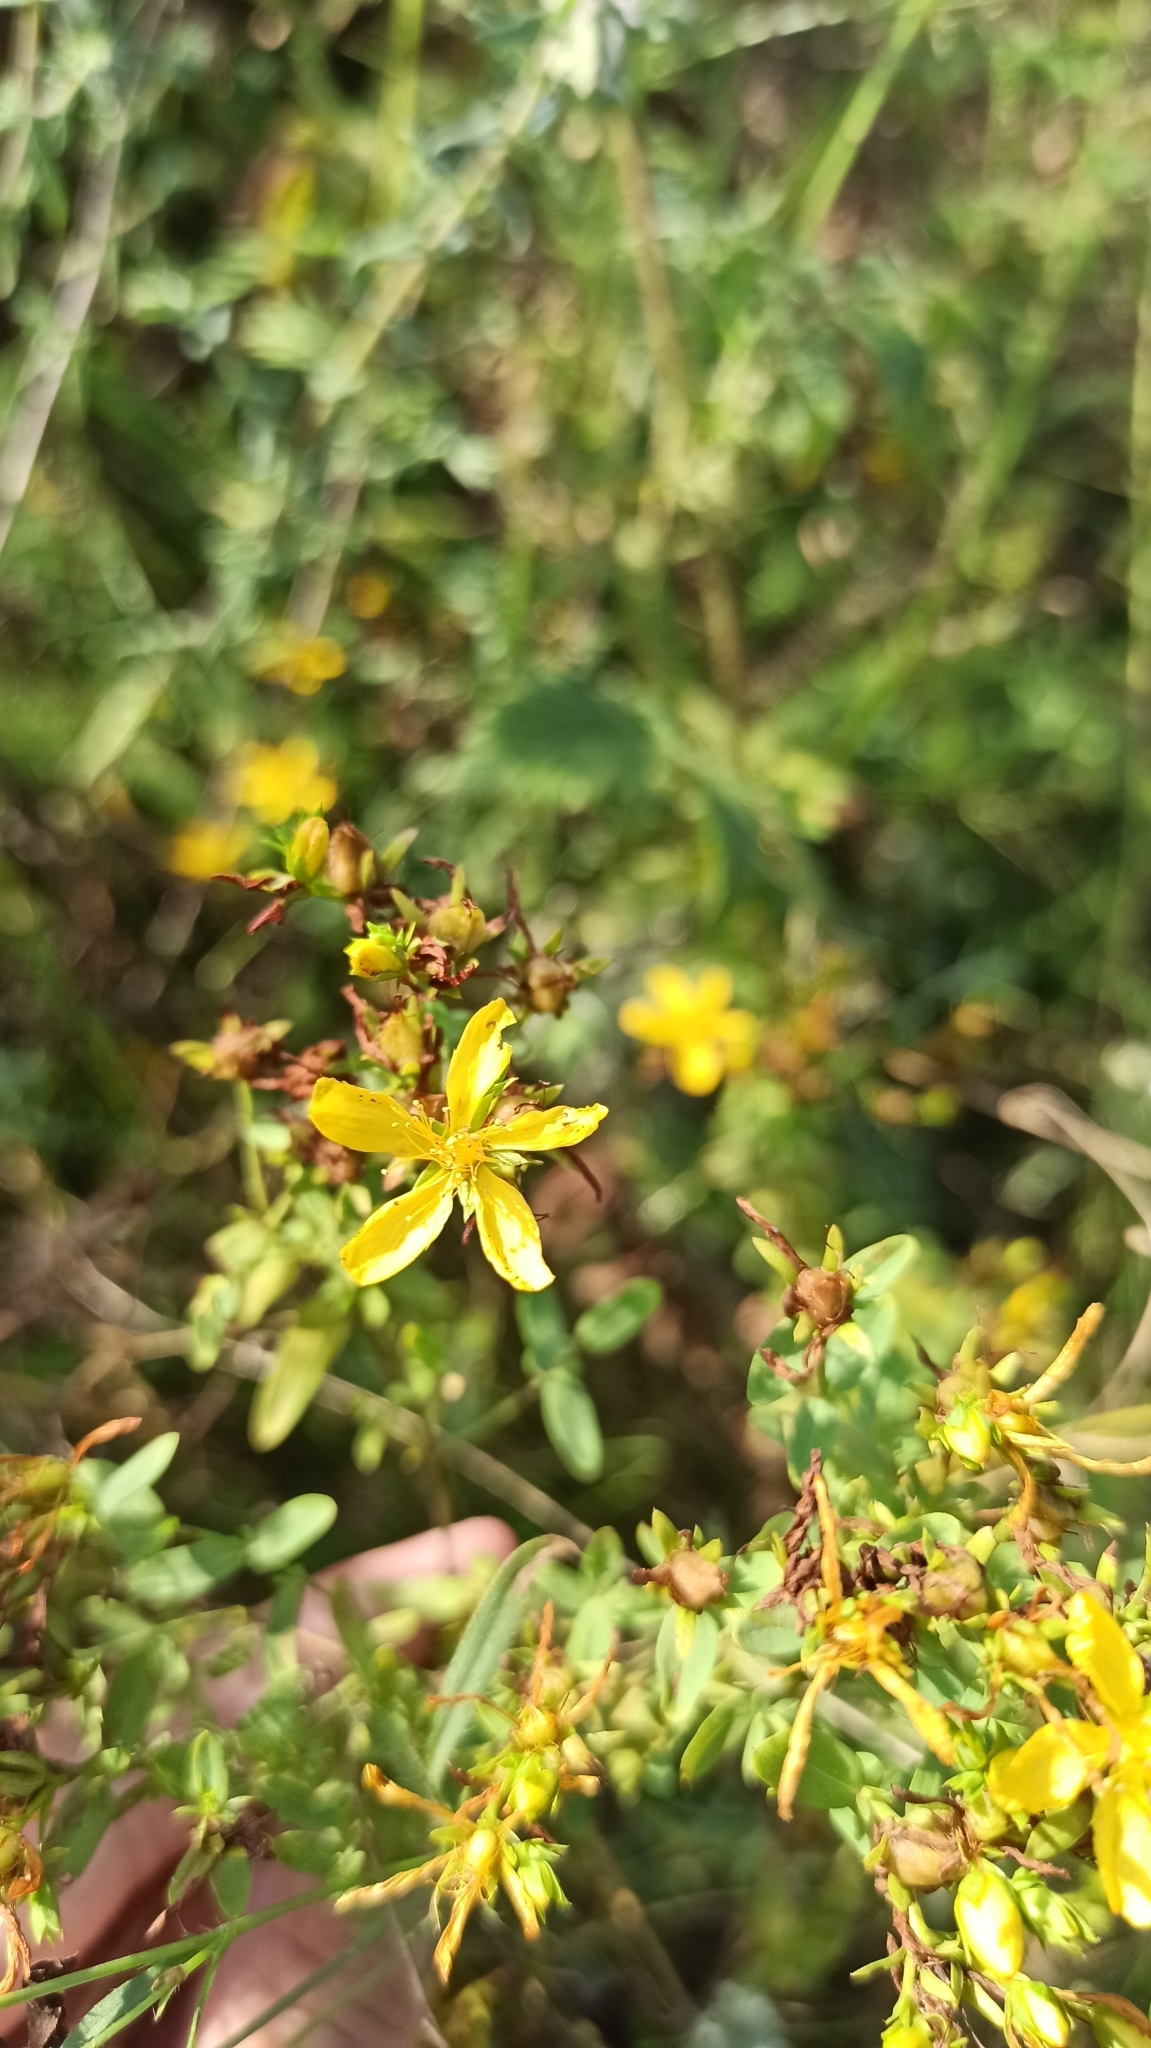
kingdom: Plantae
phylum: Tracheophyta
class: Magnoliopsida
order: Malpighiales
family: Hypericaceae
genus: Hypericum
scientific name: Hypericum perforatum
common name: Common st. johnswort
